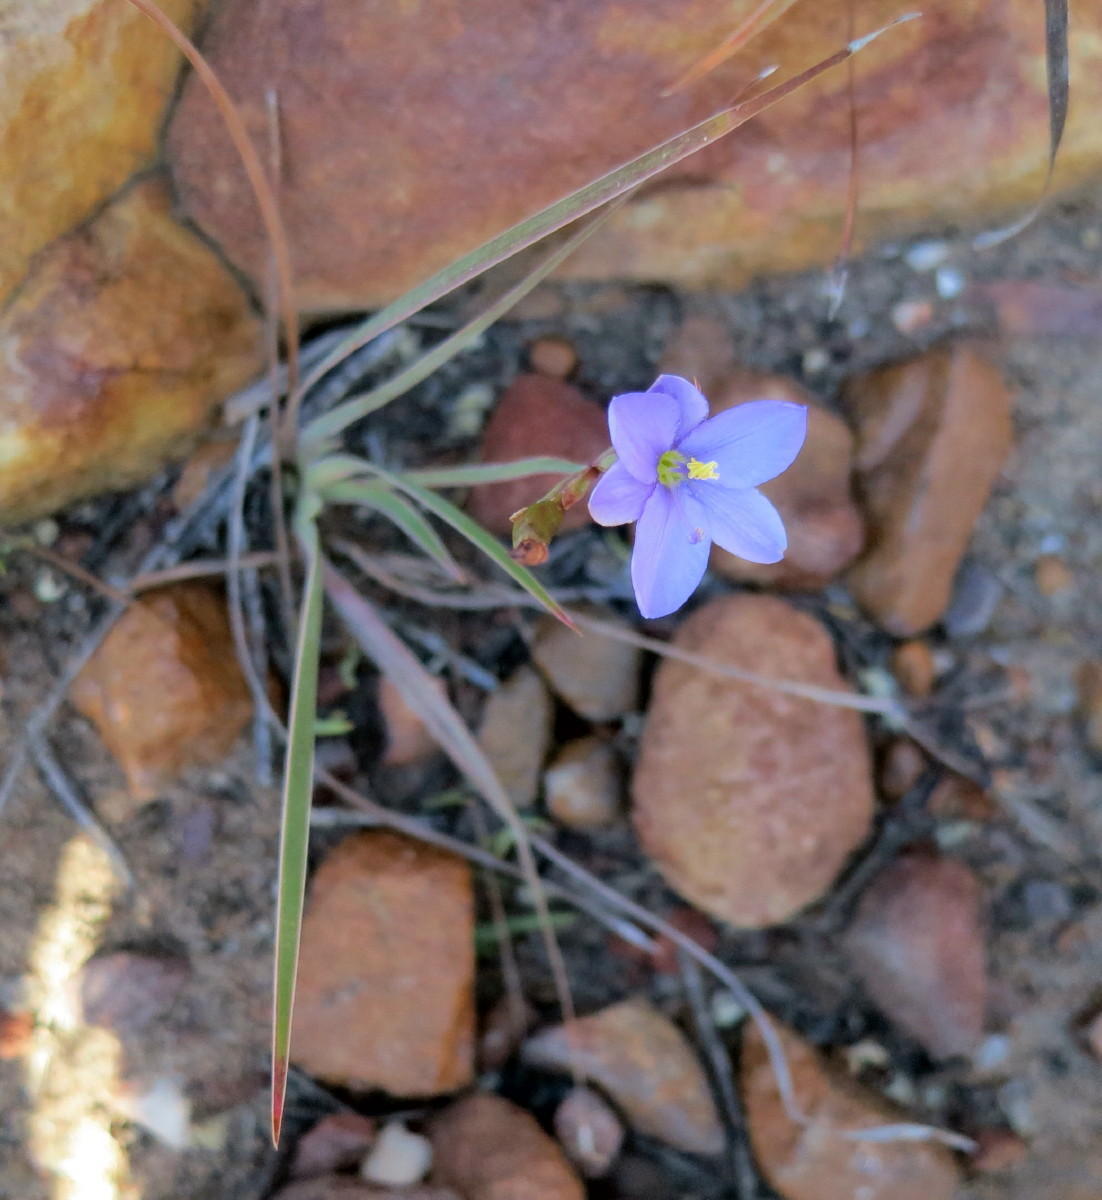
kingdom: Plantae
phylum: Tracheophyta
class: Liliopsida
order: Asparagales
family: Iridaceae
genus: Aristea
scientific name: Aristea nana
